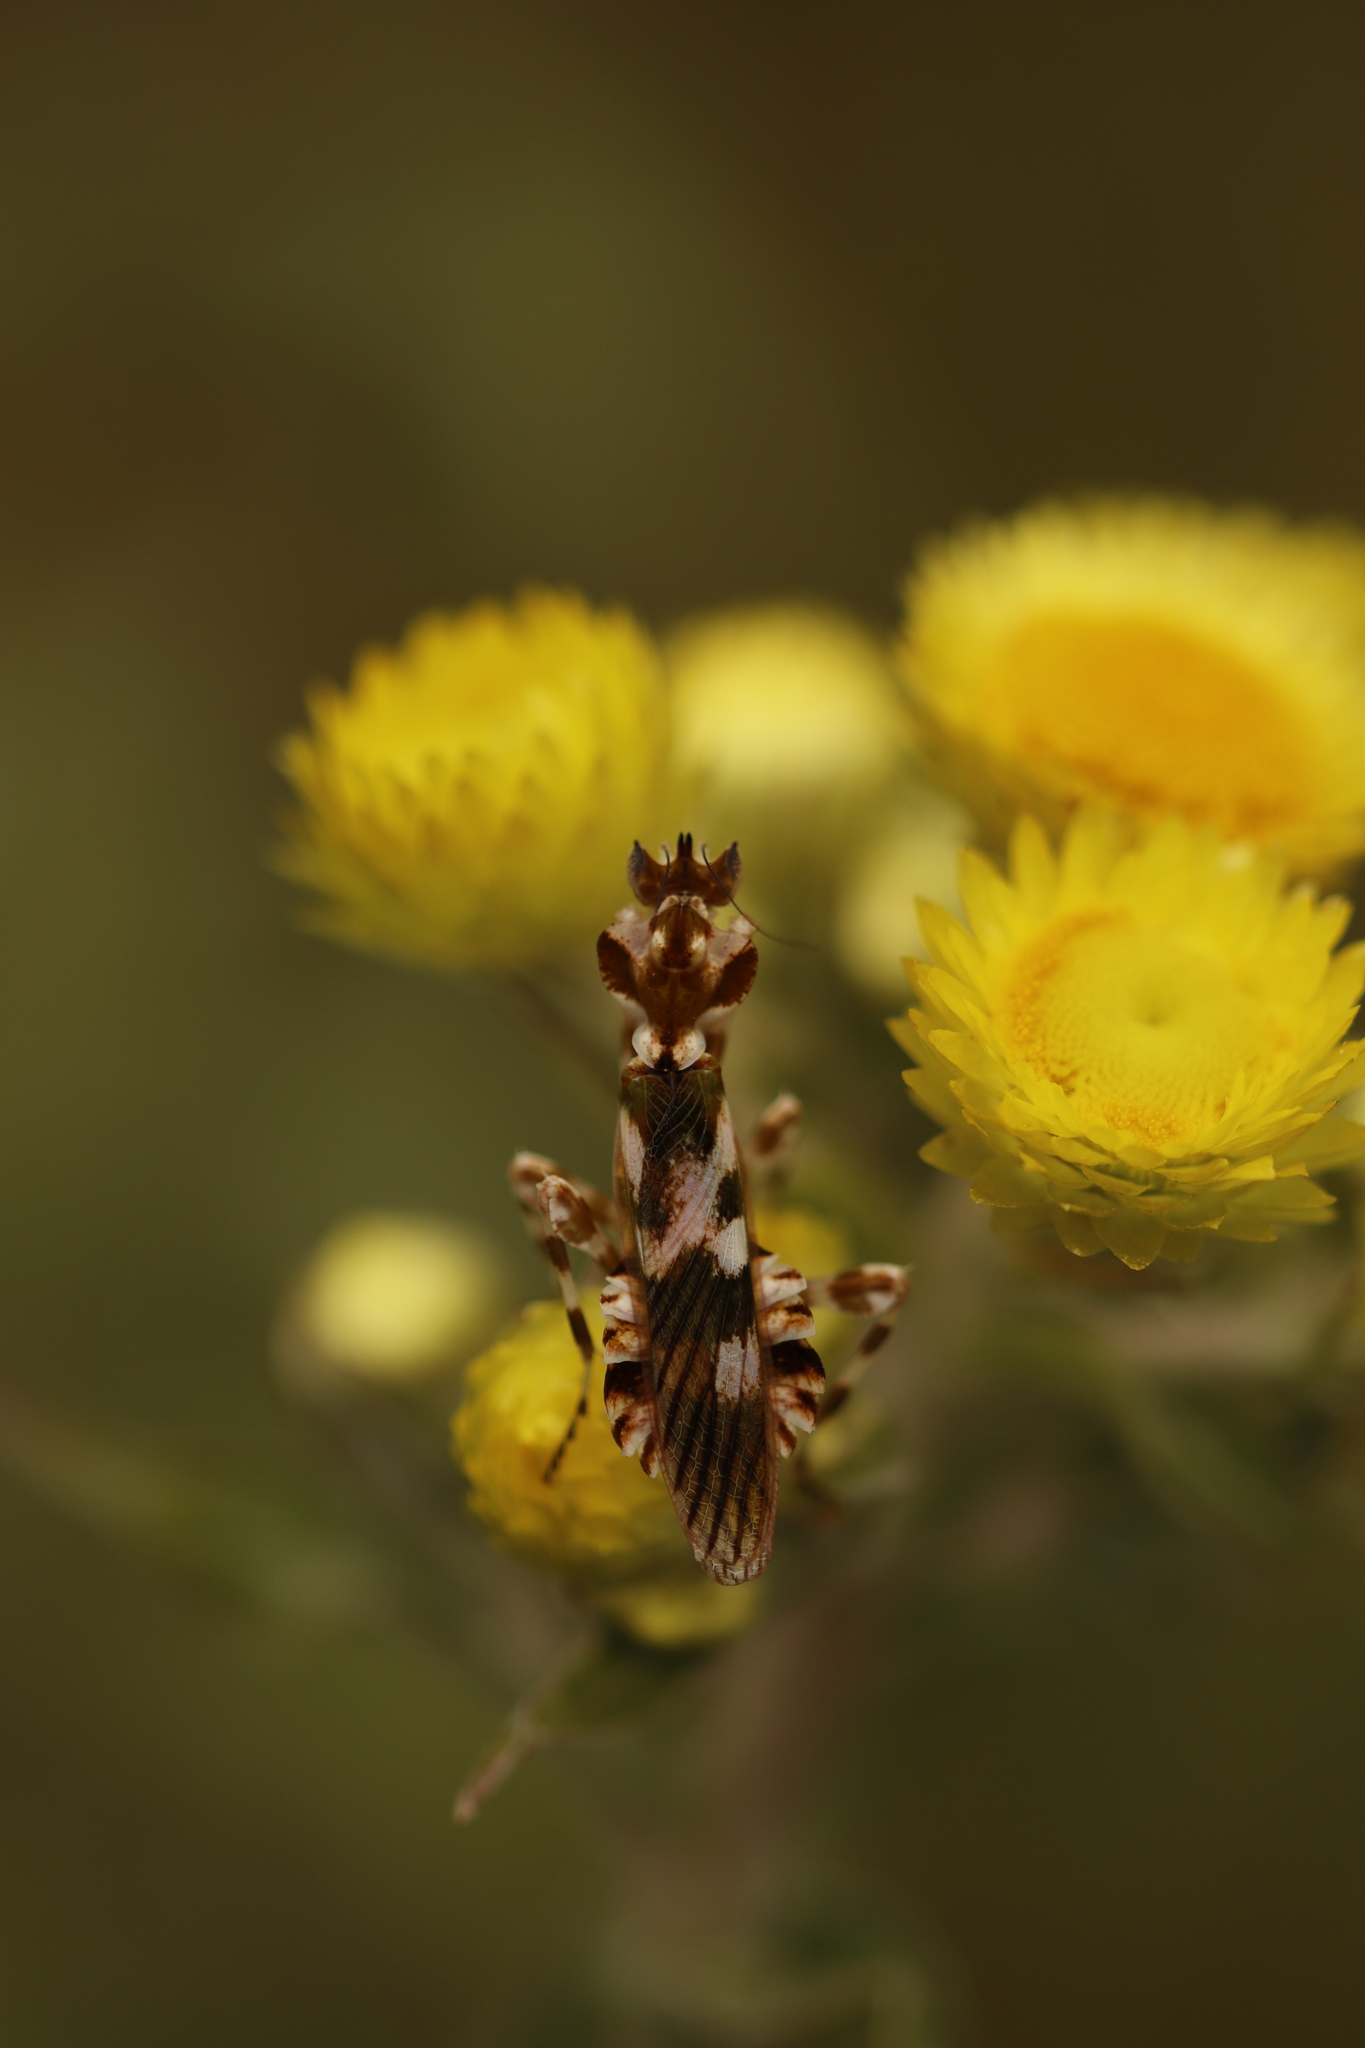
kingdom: Animalia
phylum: Arthropoda
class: Insecta
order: Mantodea
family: Galinthiadidae
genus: Harpagomantis
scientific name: Harpagomantis tricolor
